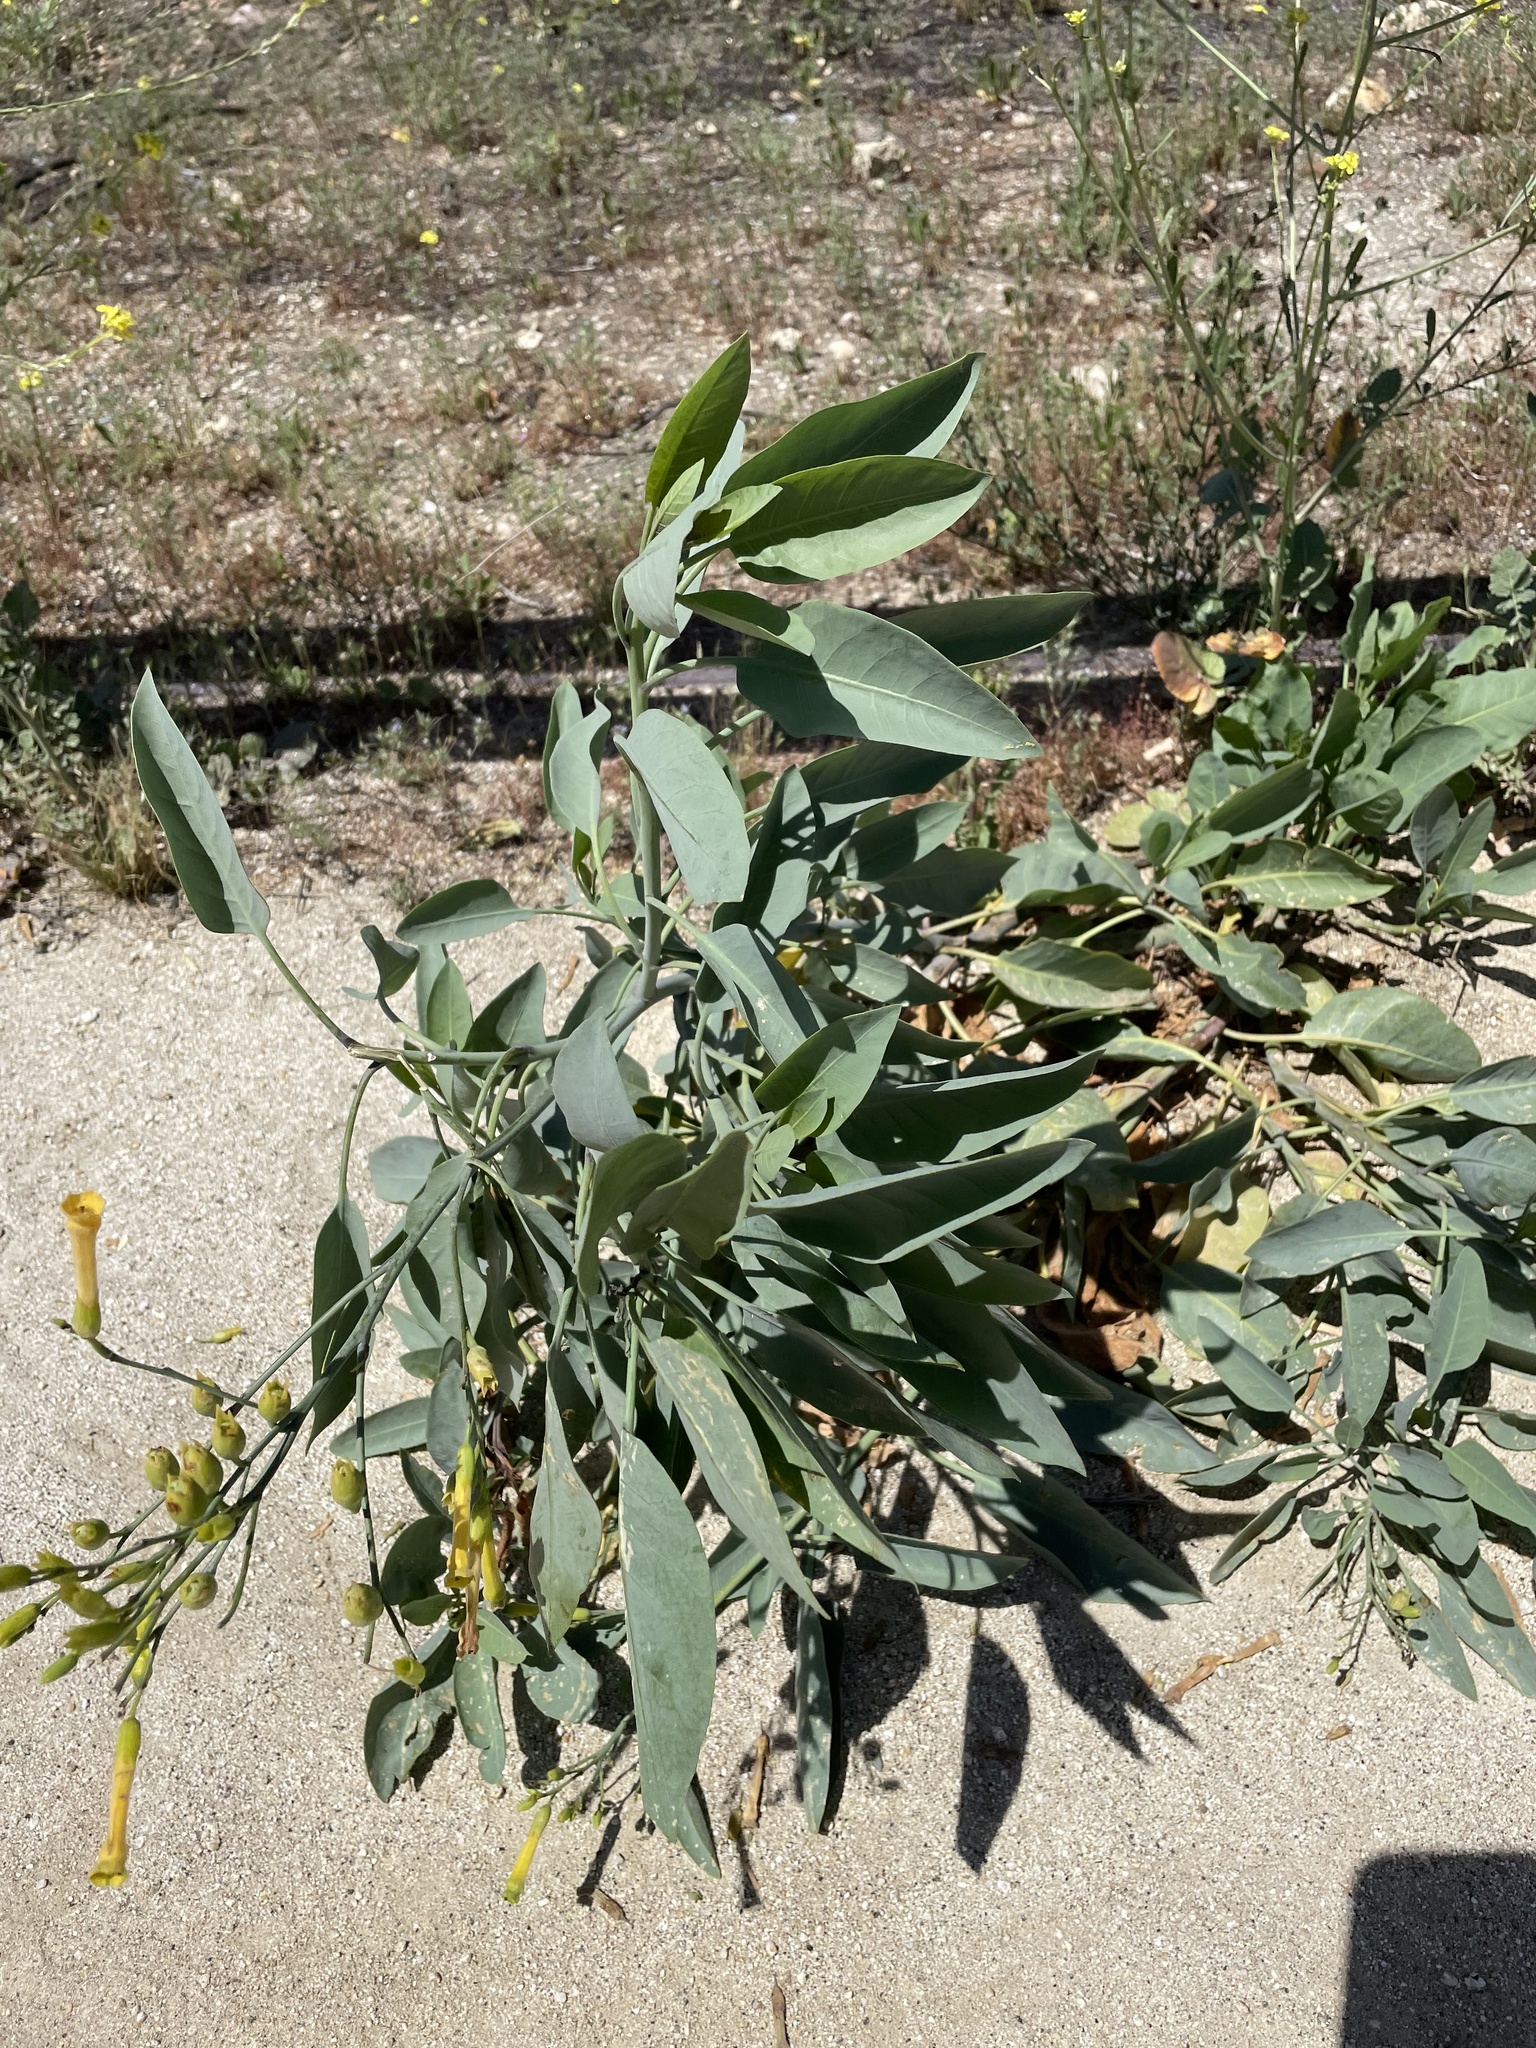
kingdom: Plantae
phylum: Tracheophyta
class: Magnoliopsida
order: Solanales
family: Solanaceae
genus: Nicotiana
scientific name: Nicotiana glauca
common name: Tree tobacco
